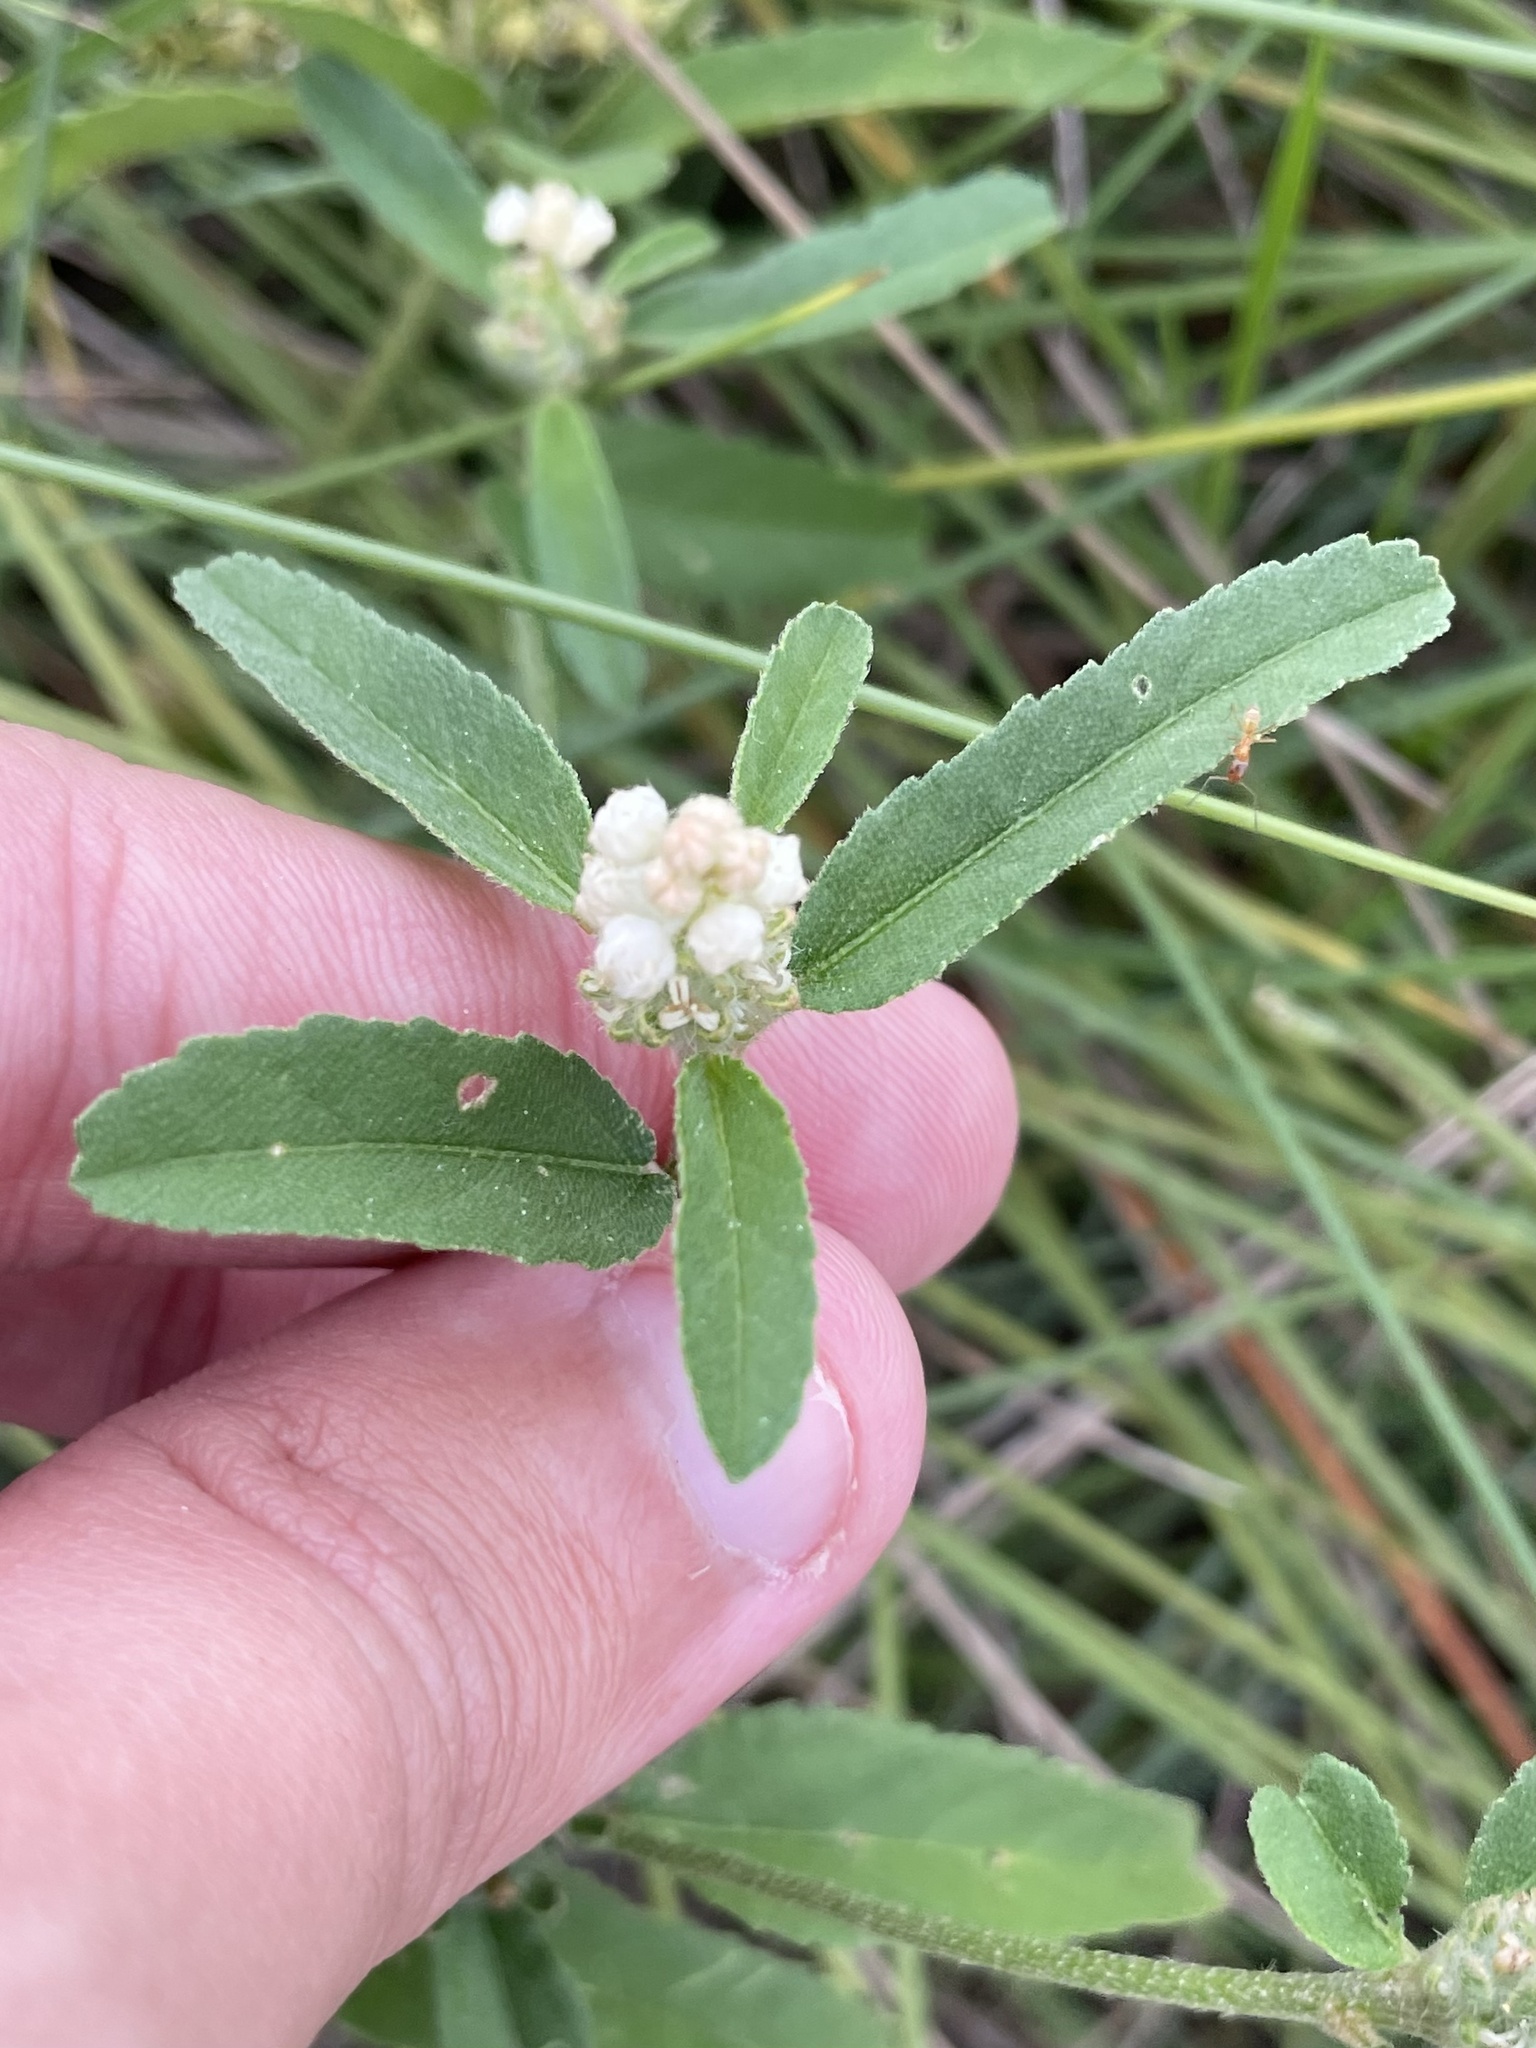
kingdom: Plantae
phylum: Tracheophyta
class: Magnoliopsida
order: Malpighiales
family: Euphorbiaceae
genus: Croton
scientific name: Croton glandulosus
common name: Tropic croton
